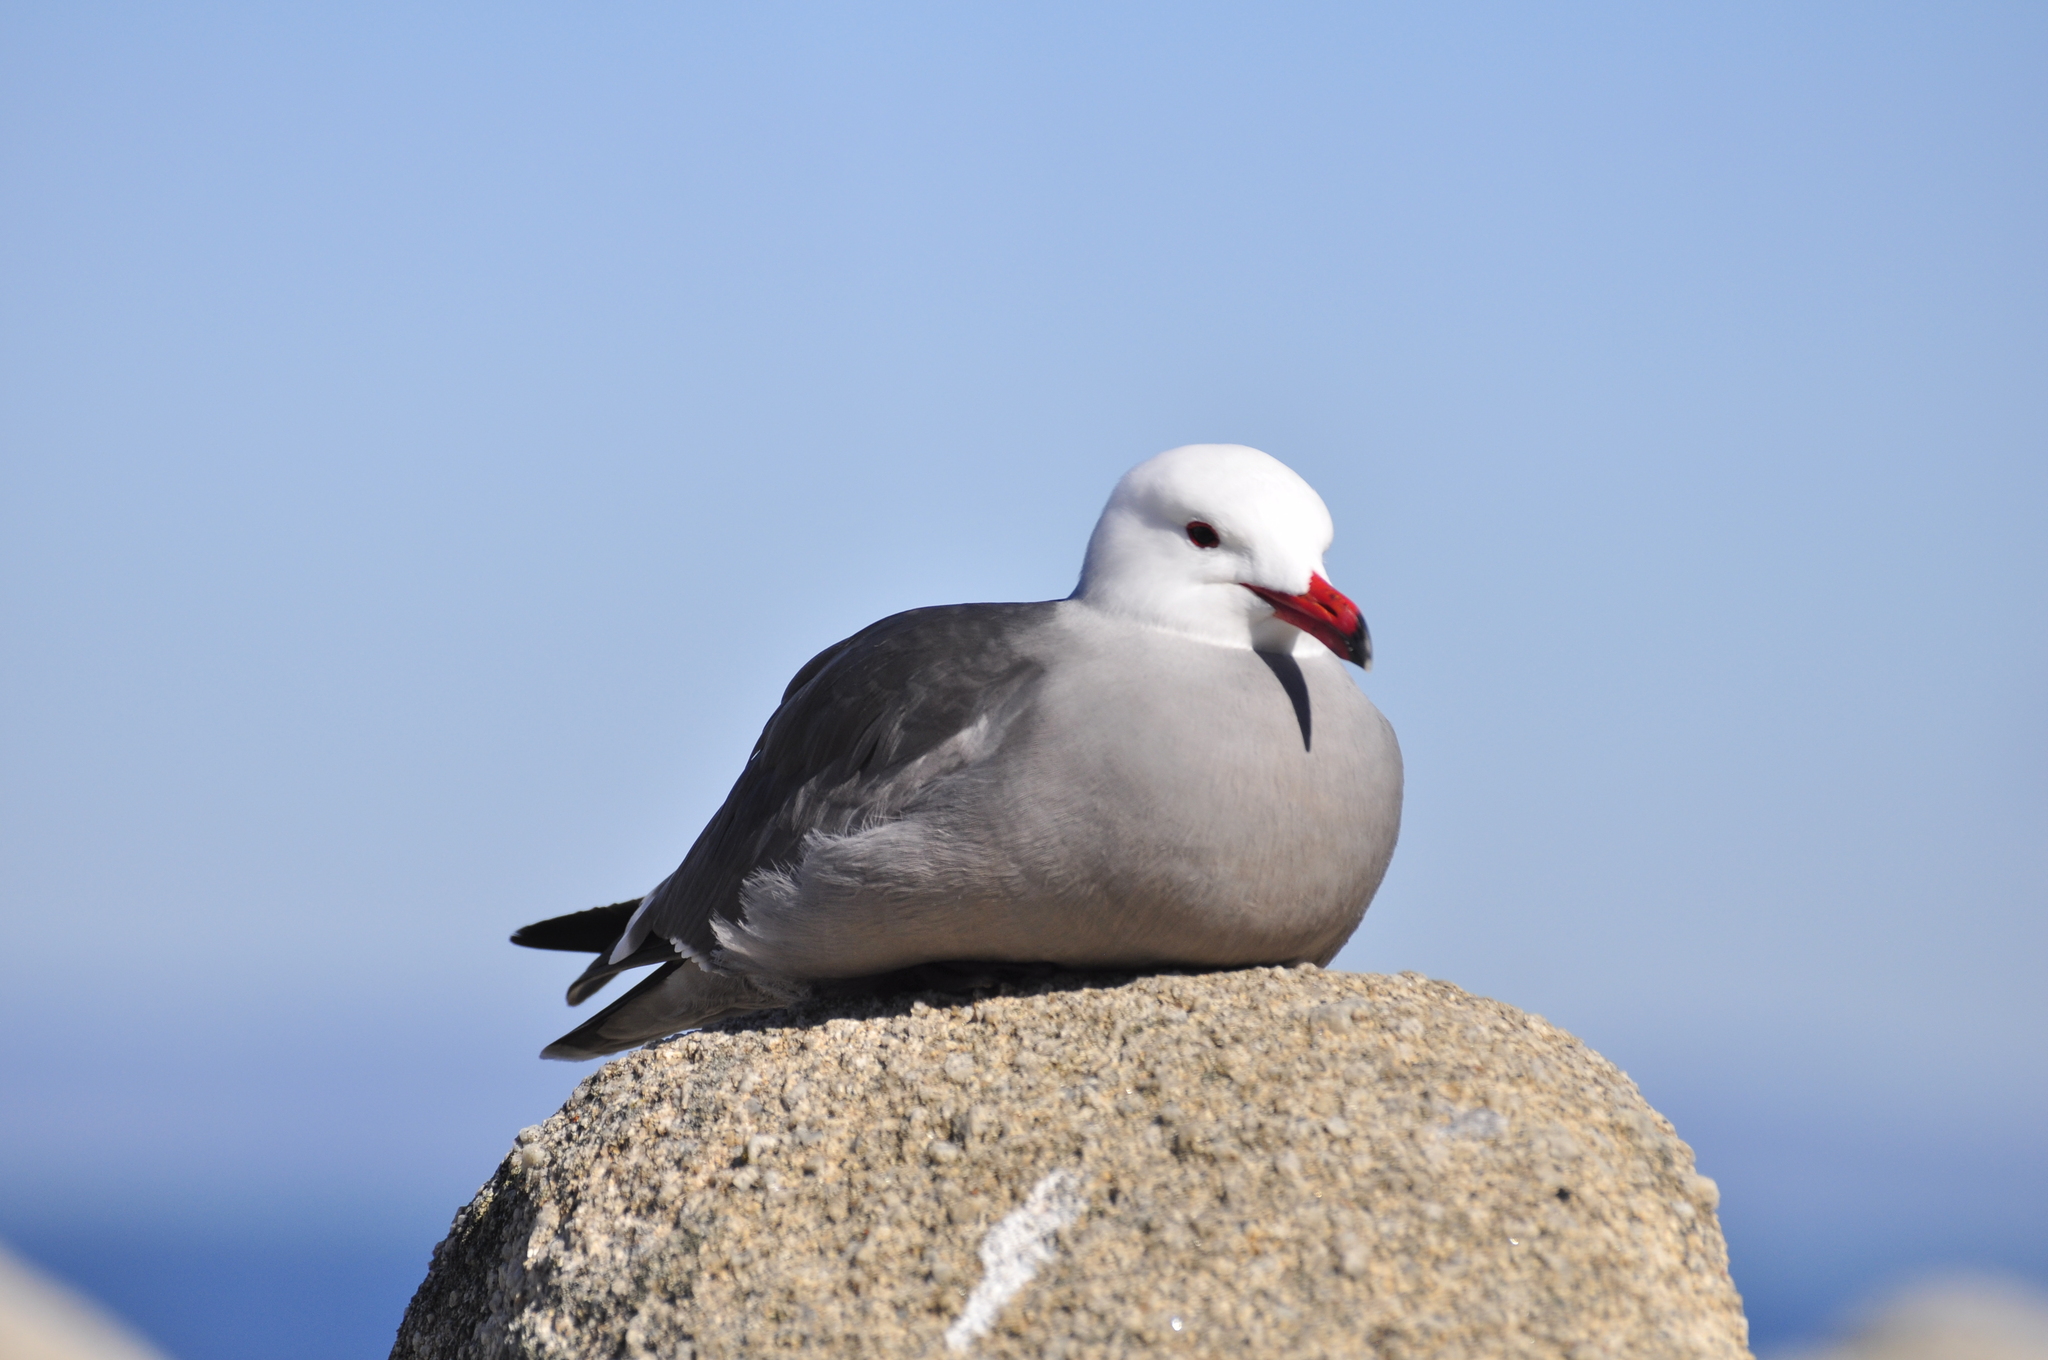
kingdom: Animalia
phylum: Chordata
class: Aves
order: Charadriiformes
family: Laridae
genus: Larus
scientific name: Larus heermanni
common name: Heermann's gull
